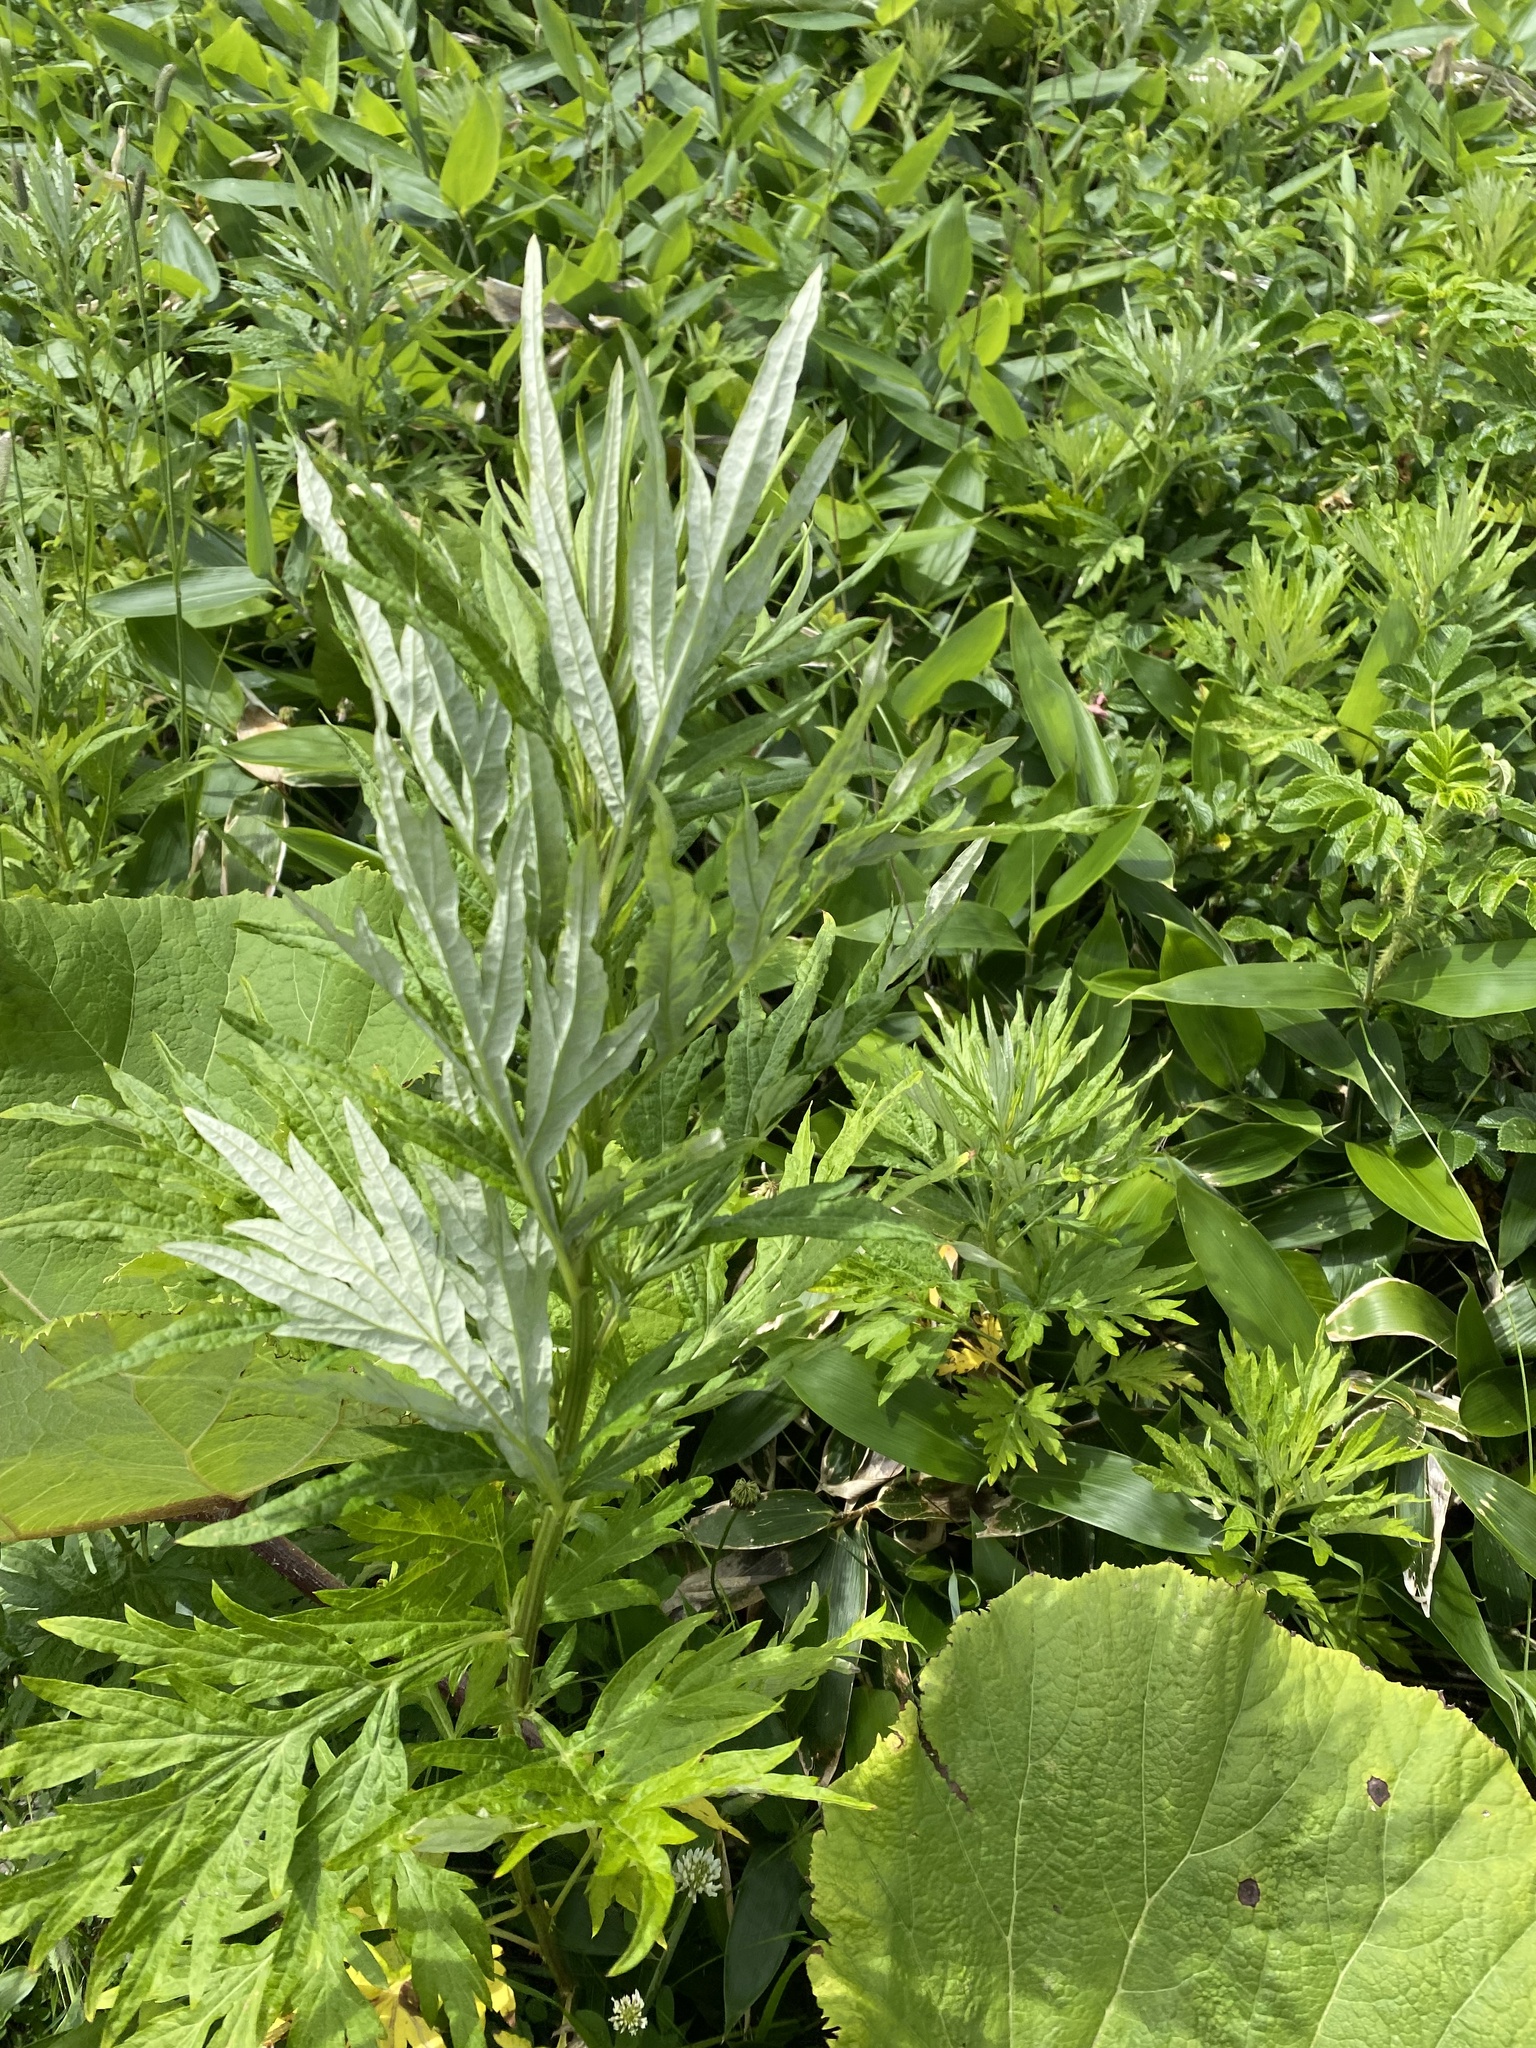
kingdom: Plantae
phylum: Tracheophyta
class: Magnoliopsida
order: Asterales
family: Asteraceae
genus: Jacobaea
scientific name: Jacobaea cannabifolia
